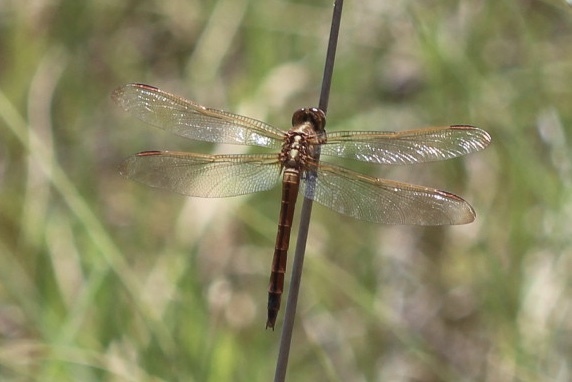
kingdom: Animalia
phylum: Arthropoda
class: Insecta
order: Odonata
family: Libellulidae
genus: Libellula
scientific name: Libellula needhami
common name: Needham's skimmer
